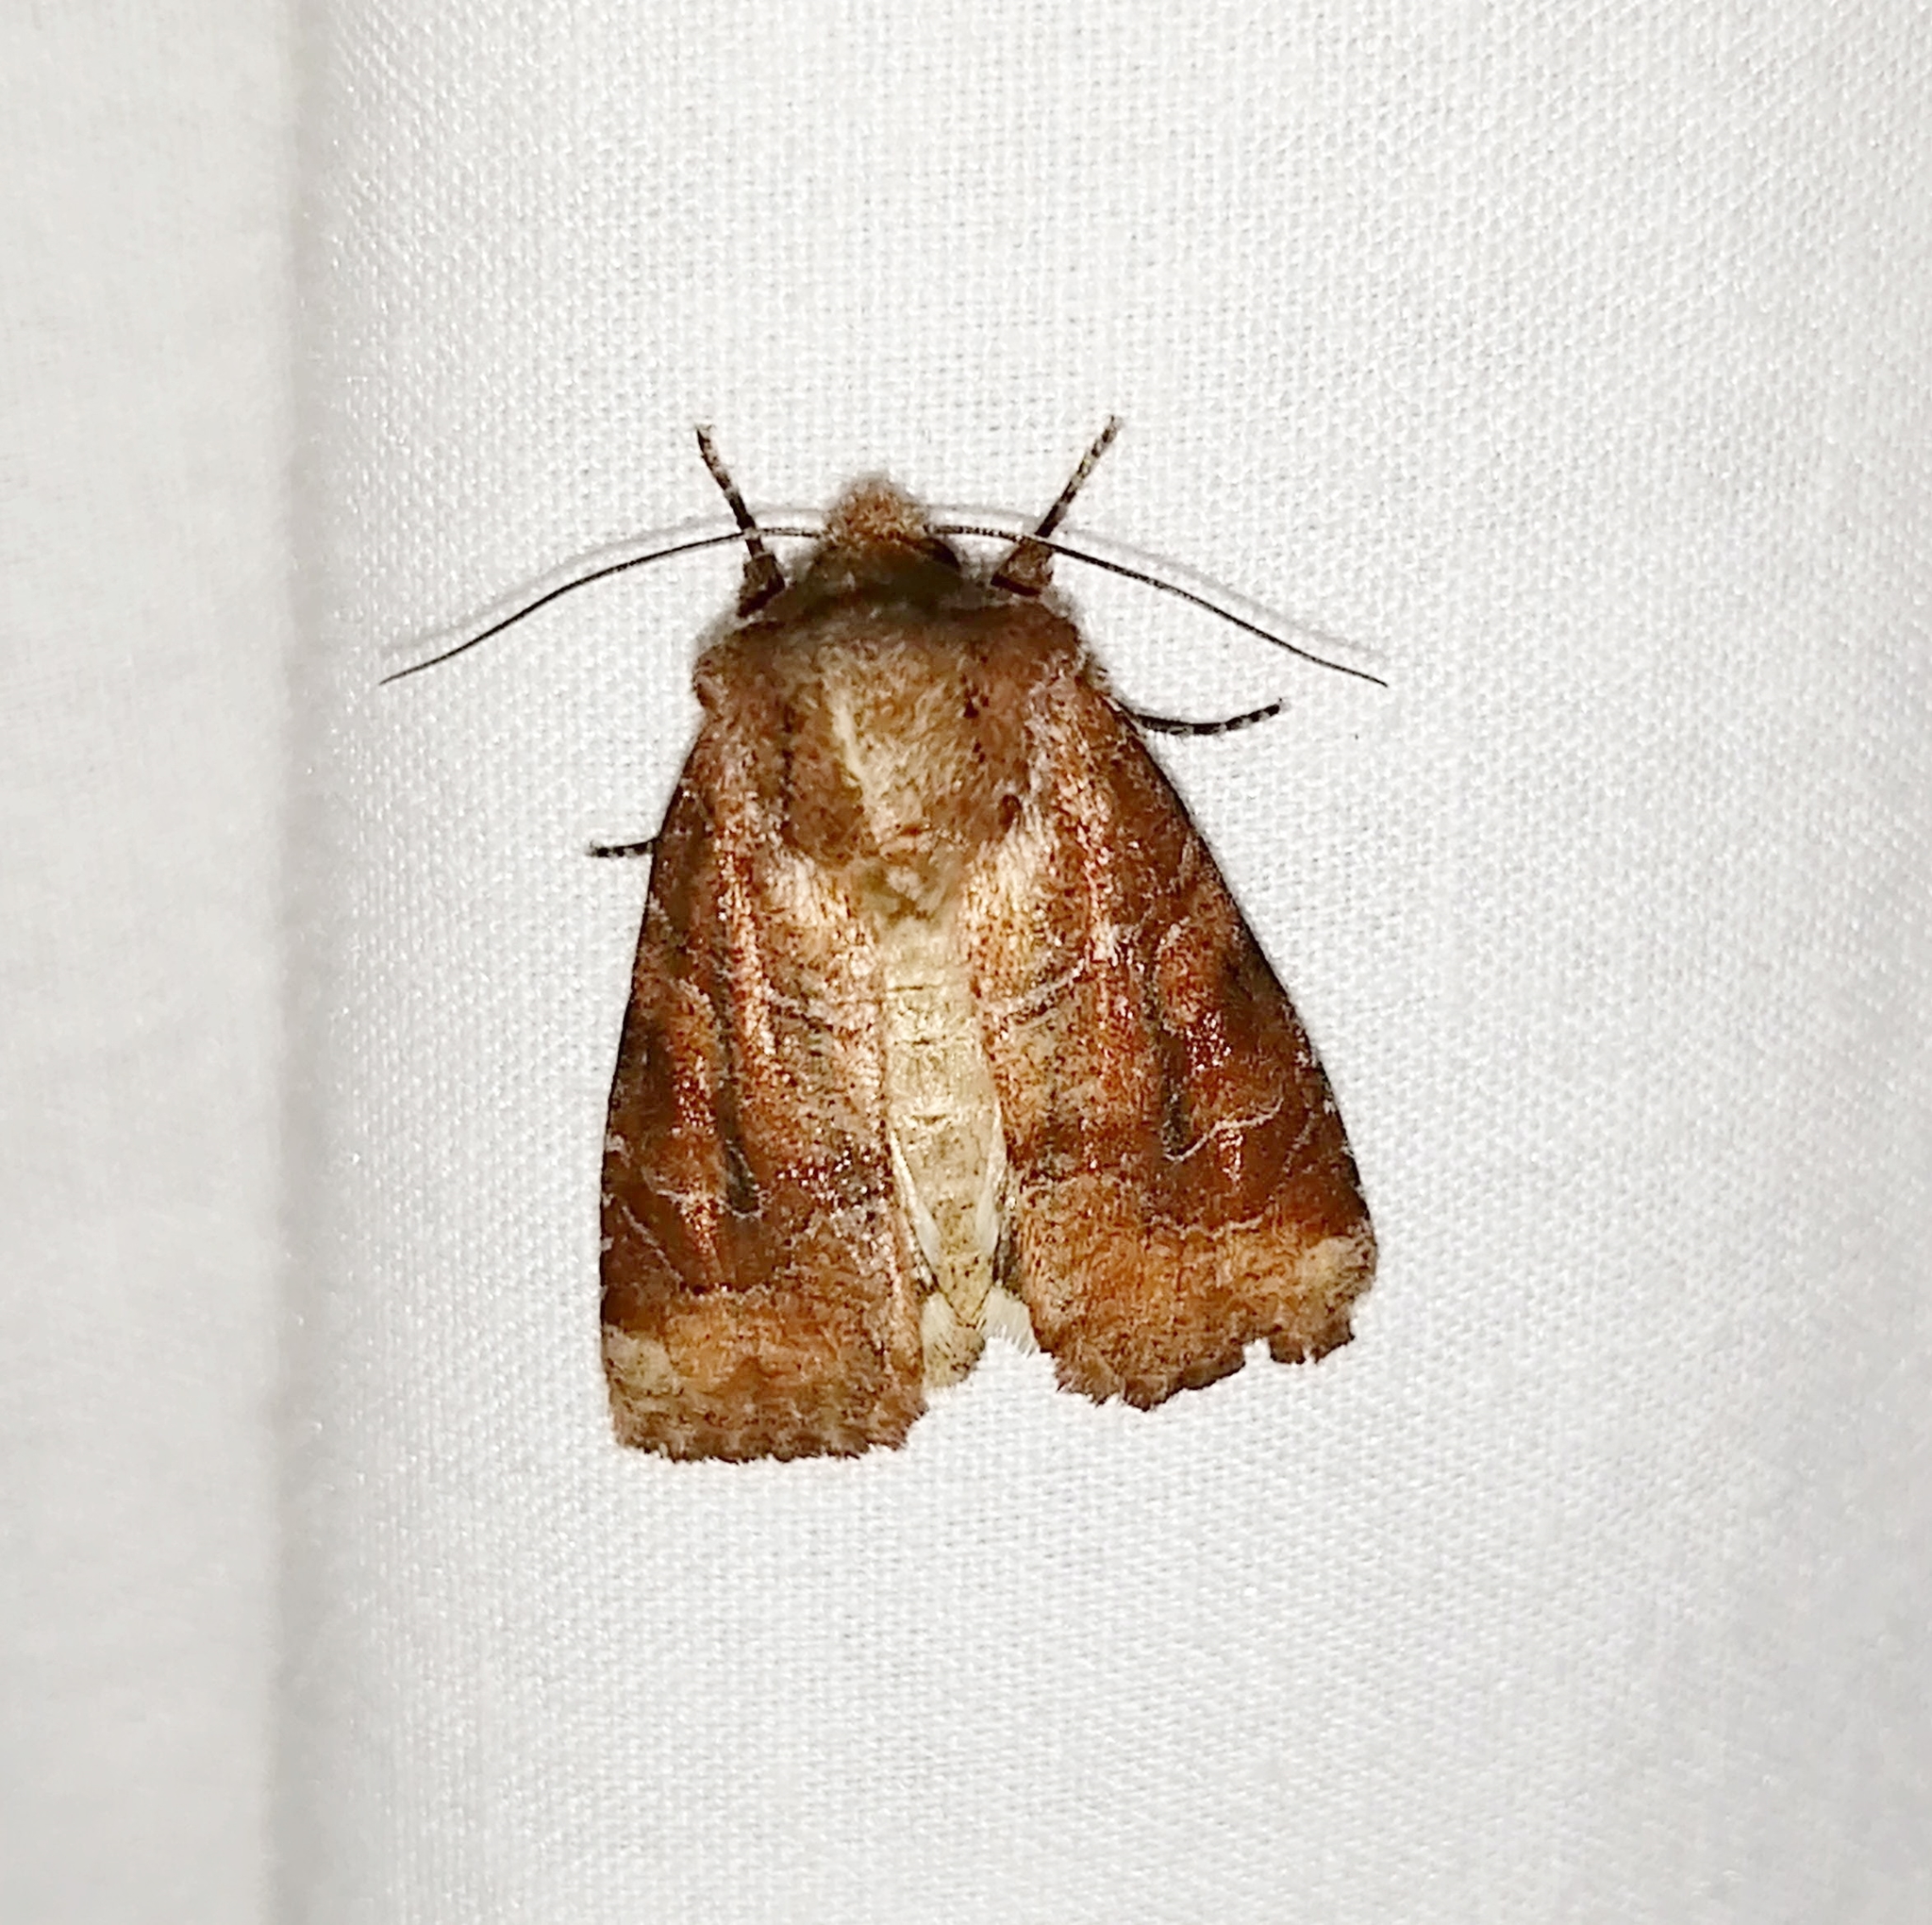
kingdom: Animalia
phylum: Arthropoda
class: Insecta
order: Lepidoptera
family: Noctuidae
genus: Crocigrapha
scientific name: Crocigrapha normani
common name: Norman's quaker
